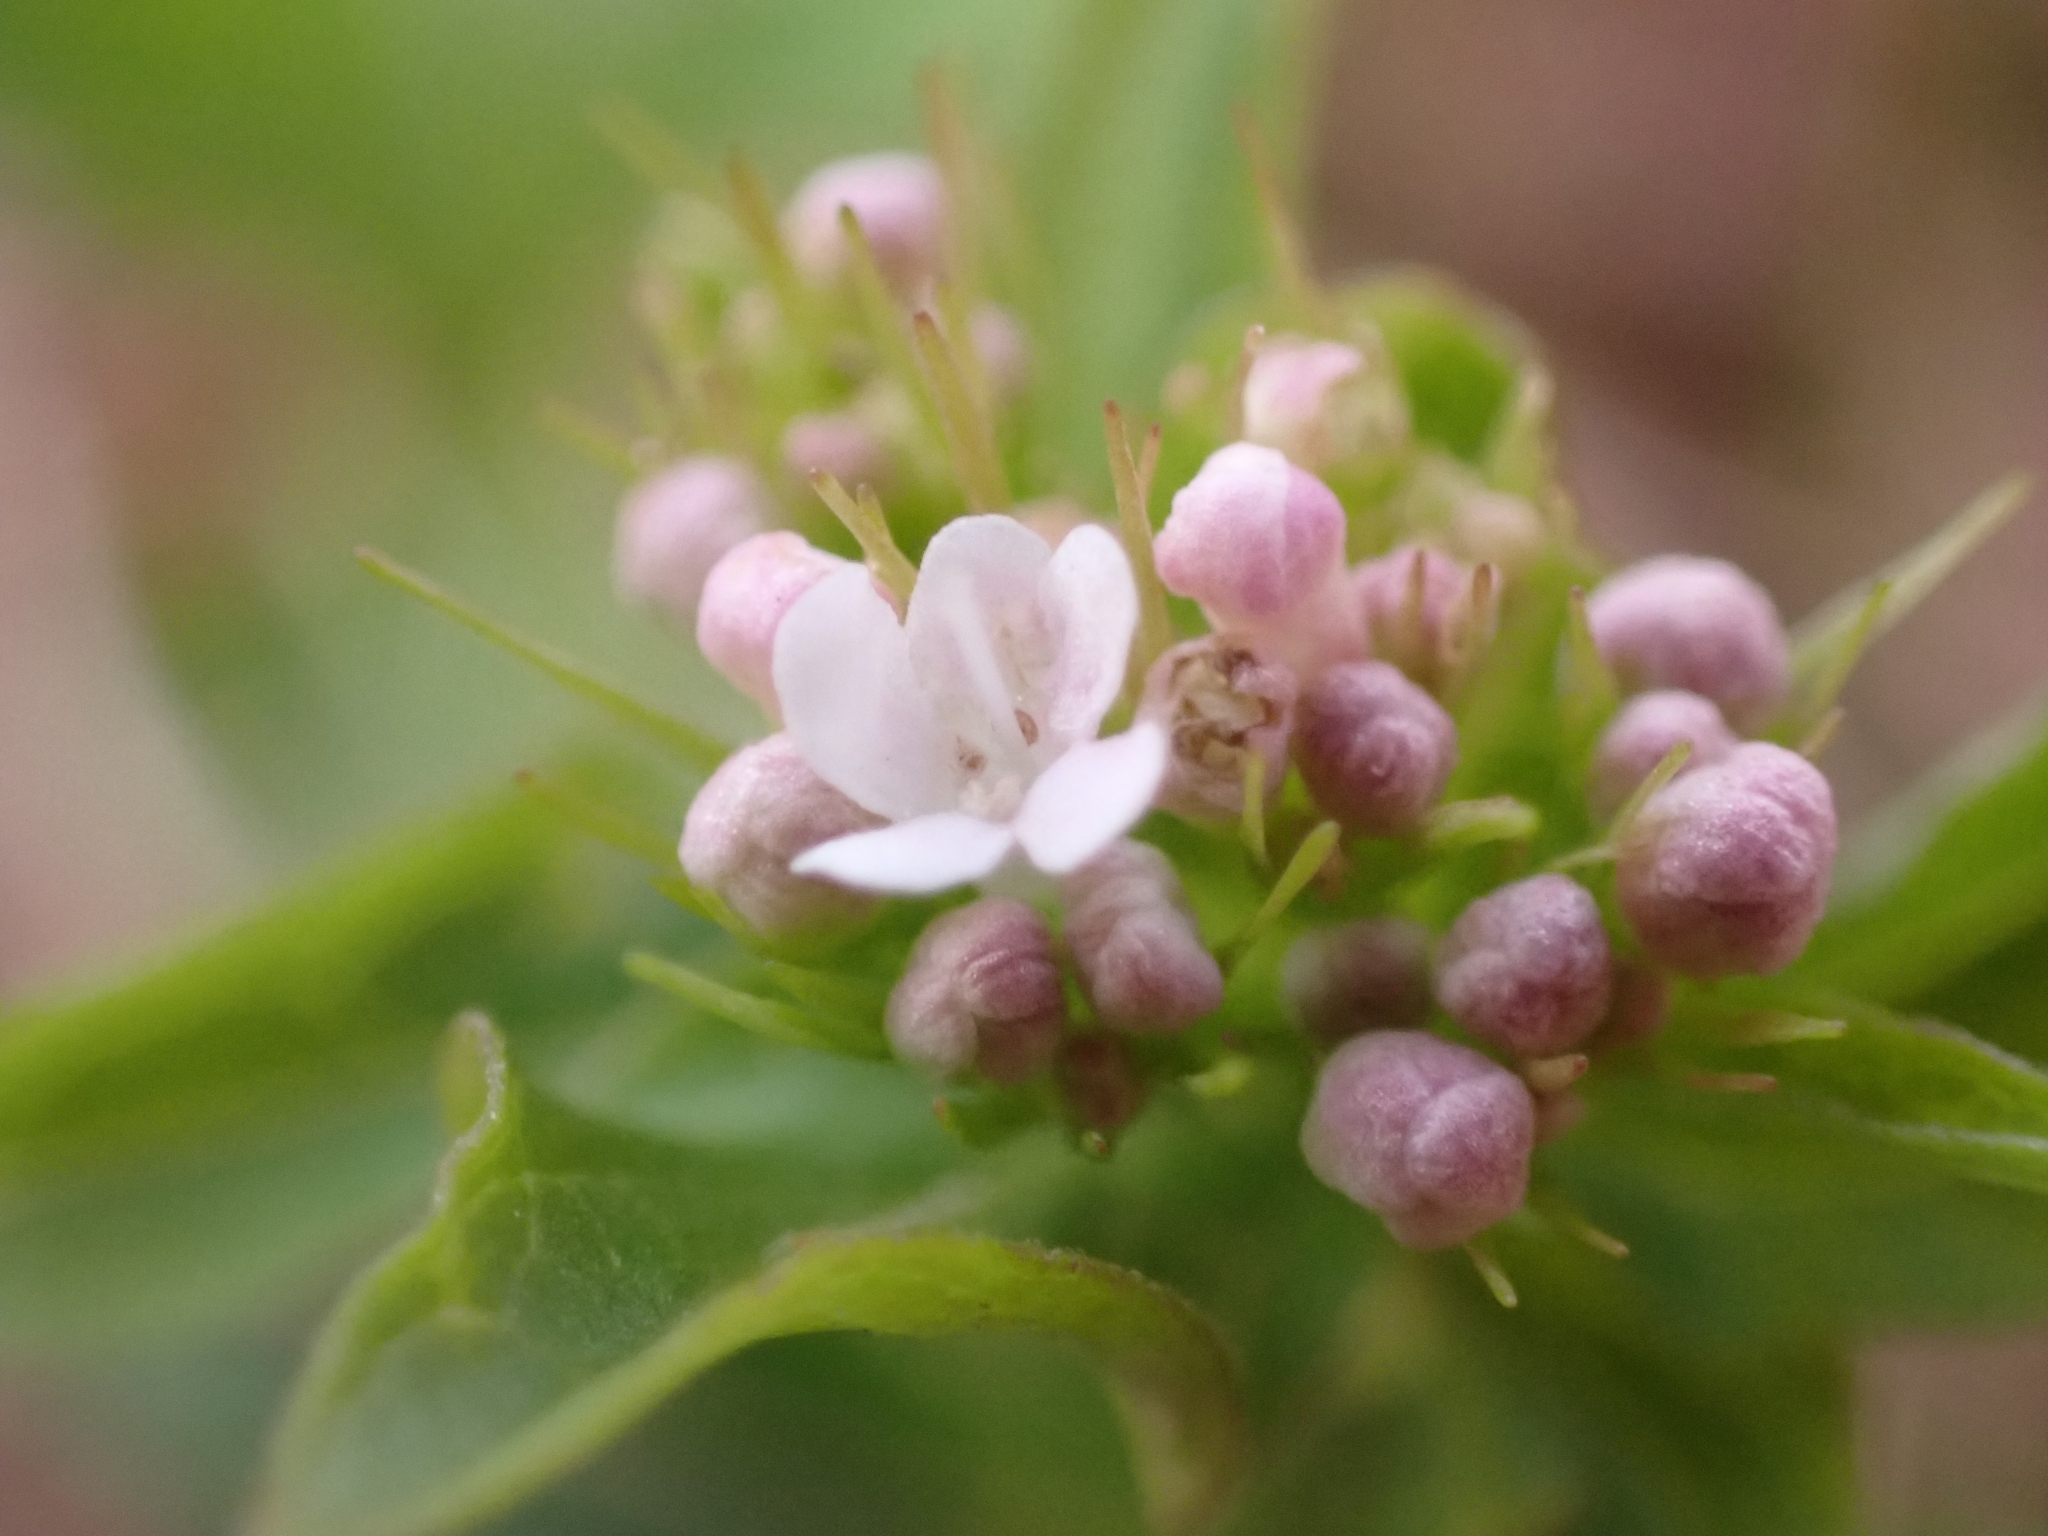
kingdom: Plantae
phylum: Tracheophyta
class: Magnoliopsida
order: Dipsacales
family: Caprifoliaceae
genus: Valeriana
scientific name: Valeriana tripteris
